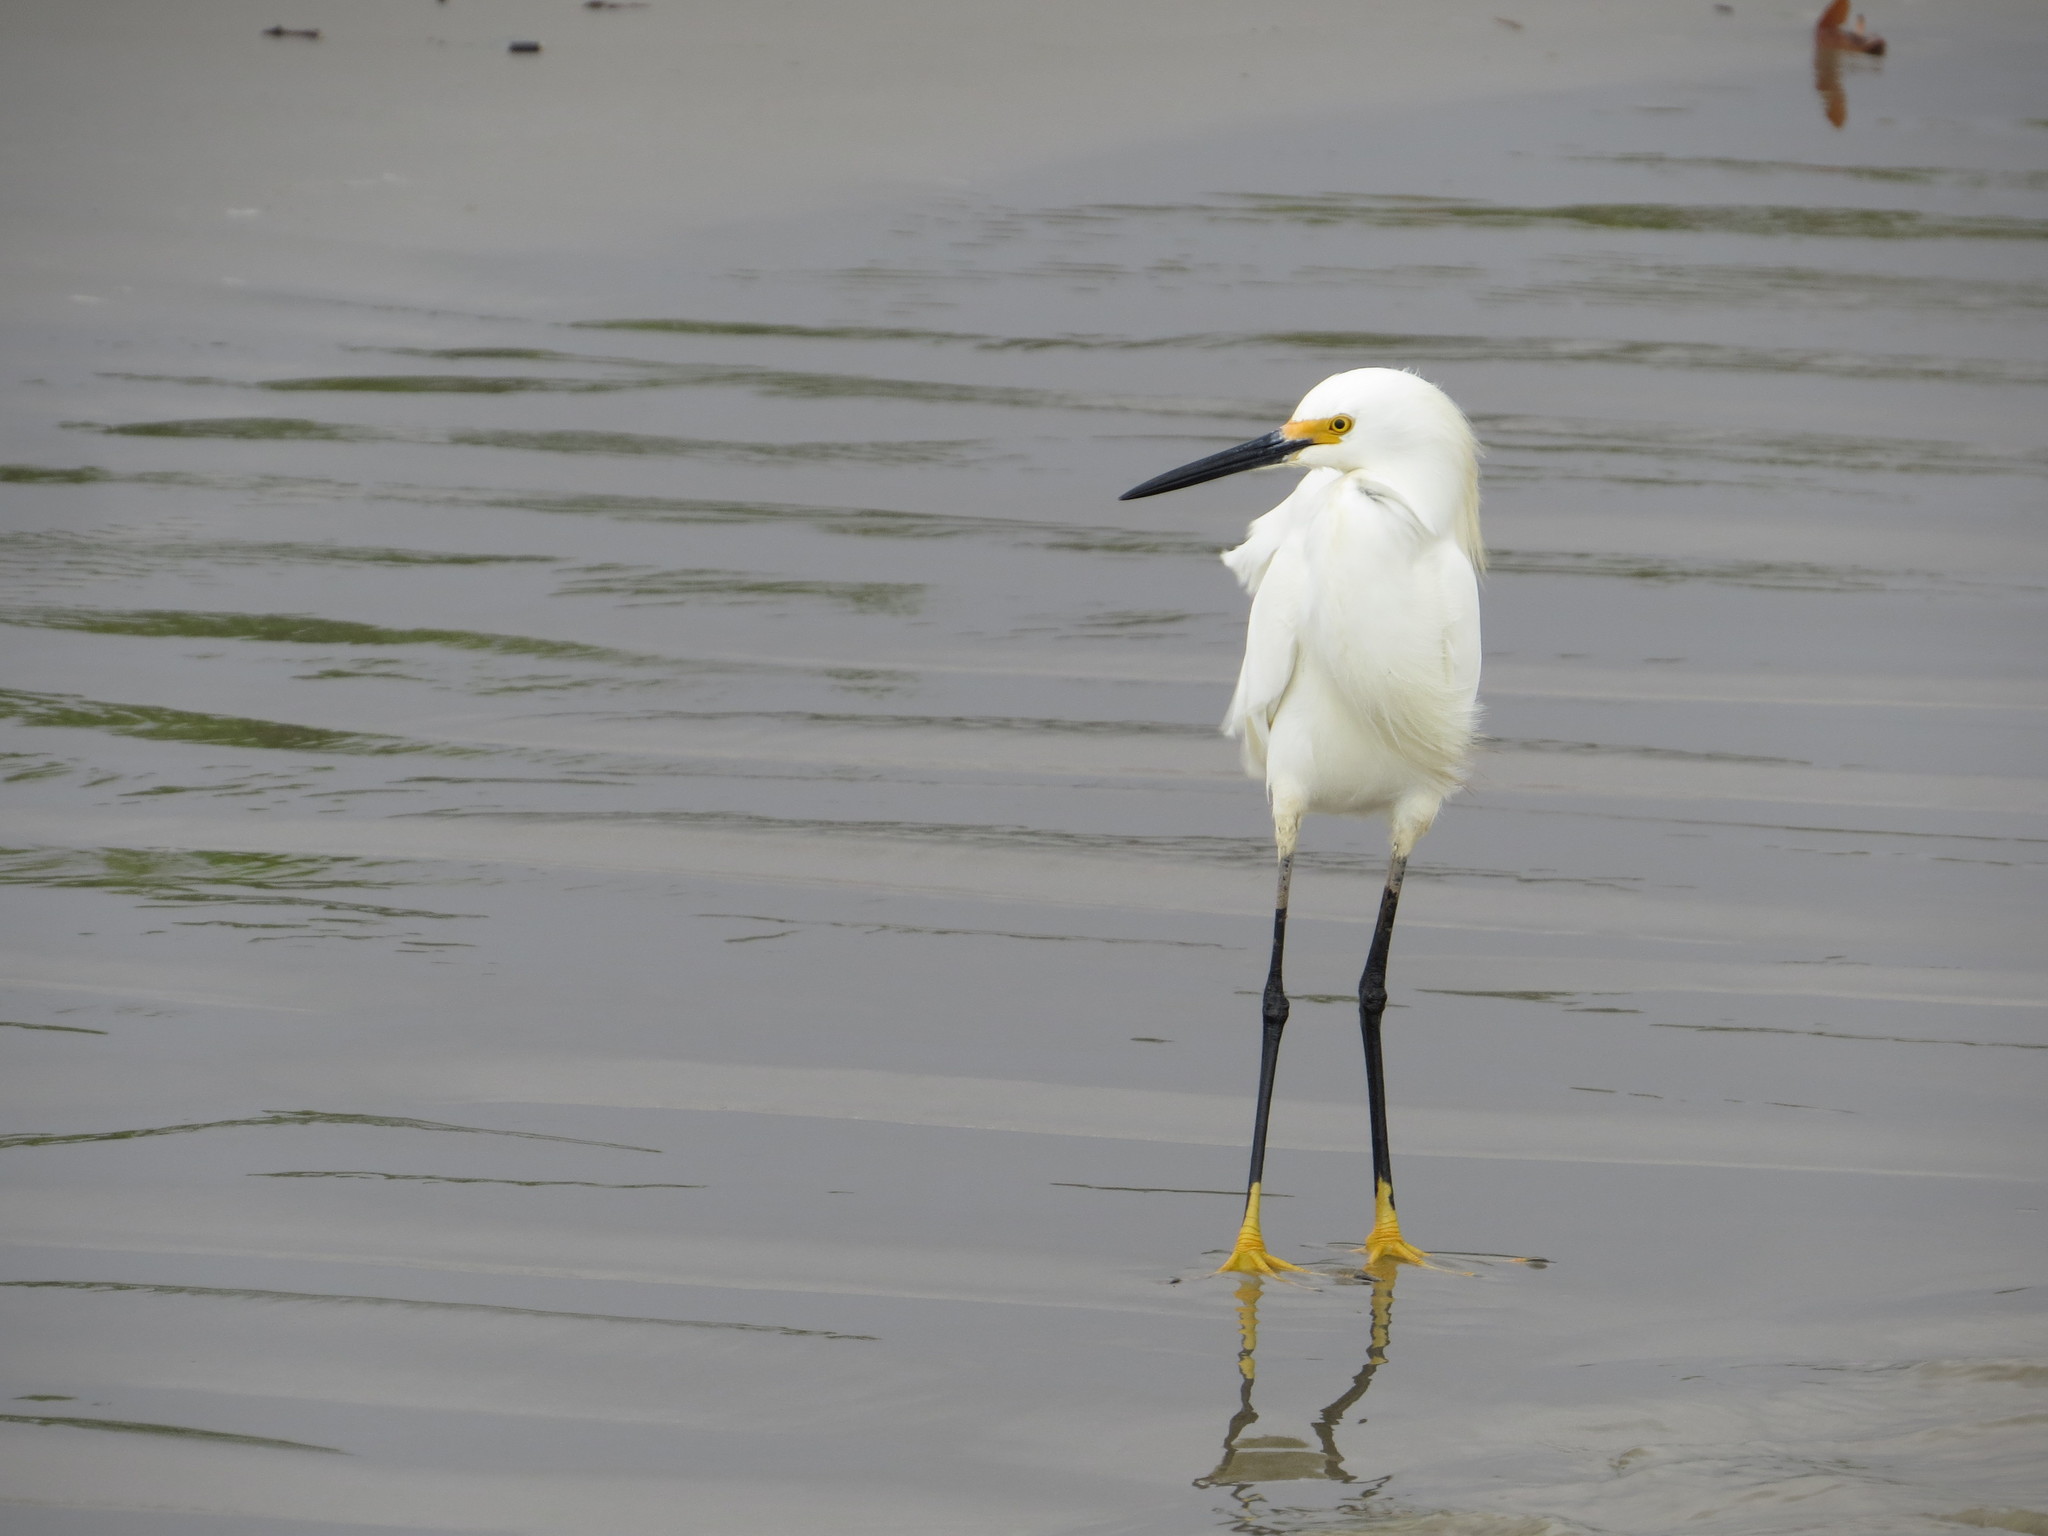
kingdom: Animalia
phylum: Chordata
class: Aves
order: Pelecaniformes
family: Ardeidae
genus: Egretta
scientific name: Egretta thula
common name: Snowy egret
